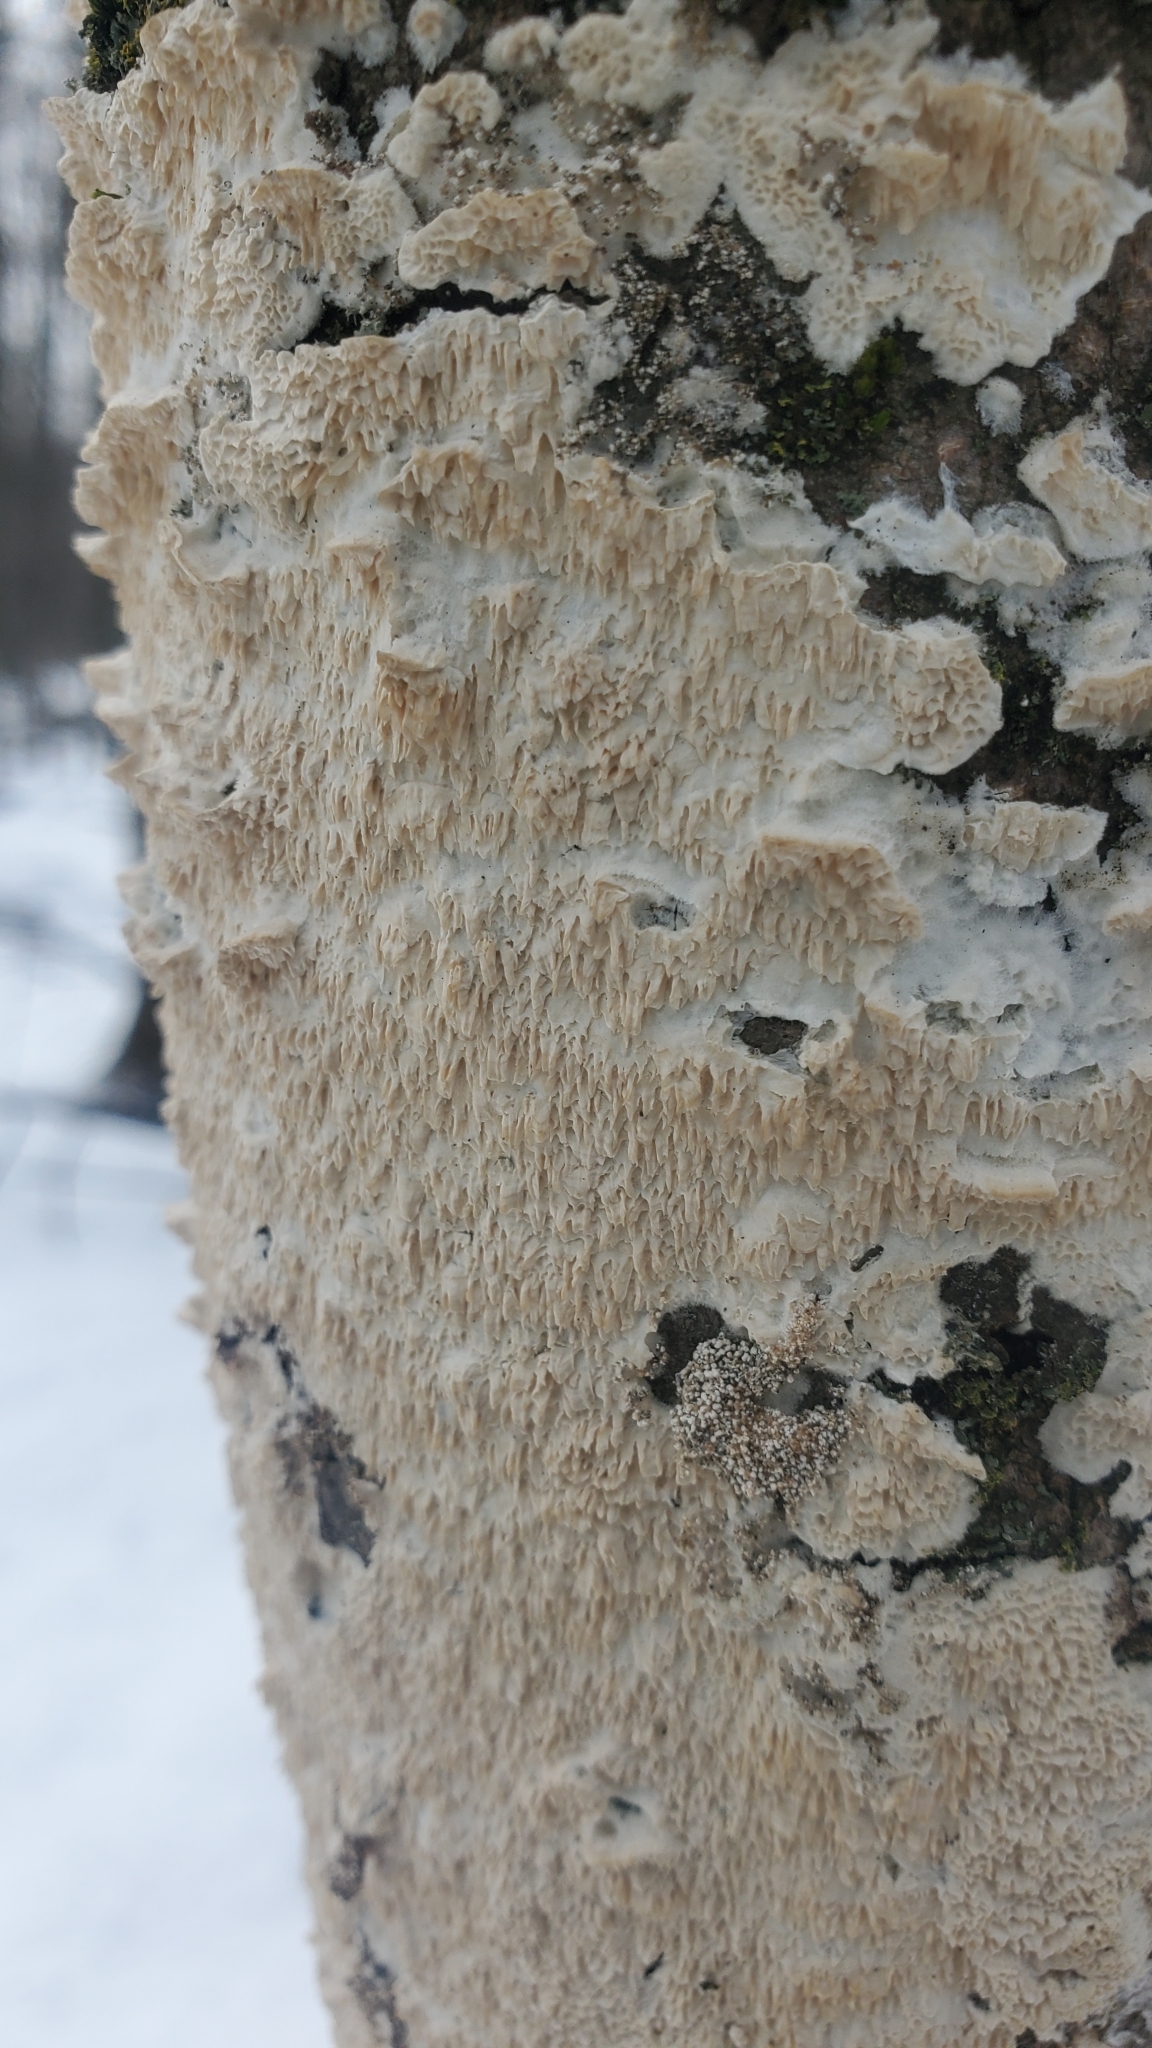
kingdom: Fungi
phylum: Basidiomycota
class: Agaricomycetes
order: Polyporales
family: Irpicaceae
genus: Irpex
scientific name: Irpex lacteus
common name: Milk-white toothed polypore
